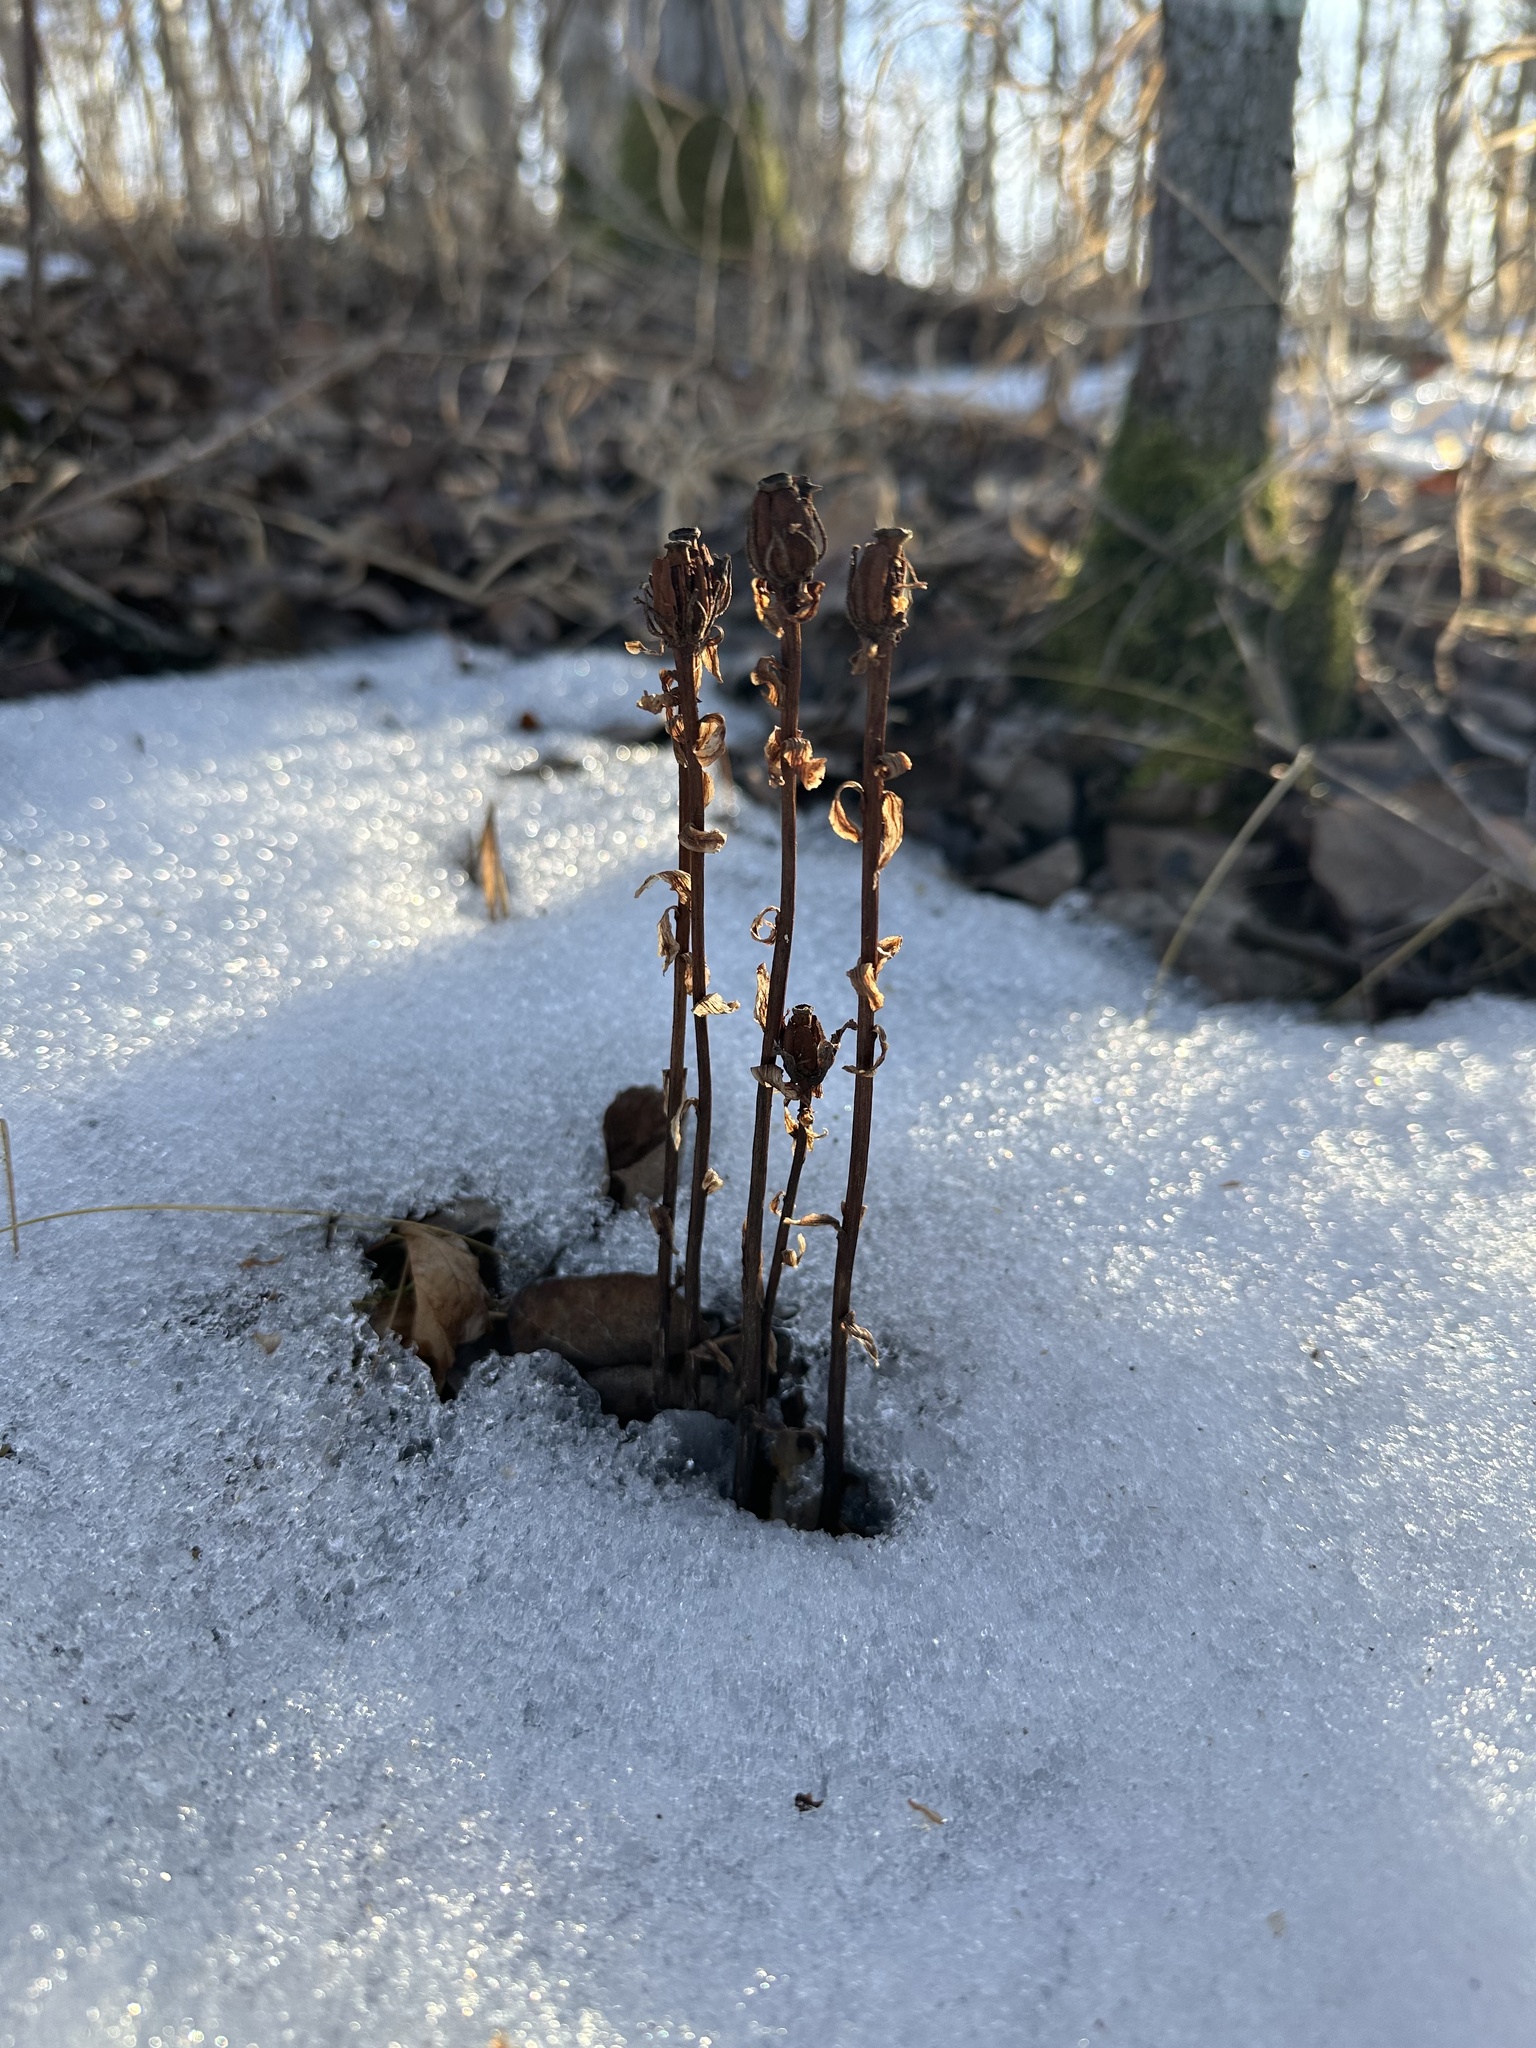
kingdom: Plantae
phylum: Tracheophyta
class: Magnoliopsida
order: Ericales
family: Ericaceae
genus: Monotropa
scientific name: Monotropa uniflora
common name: Convulsion root
